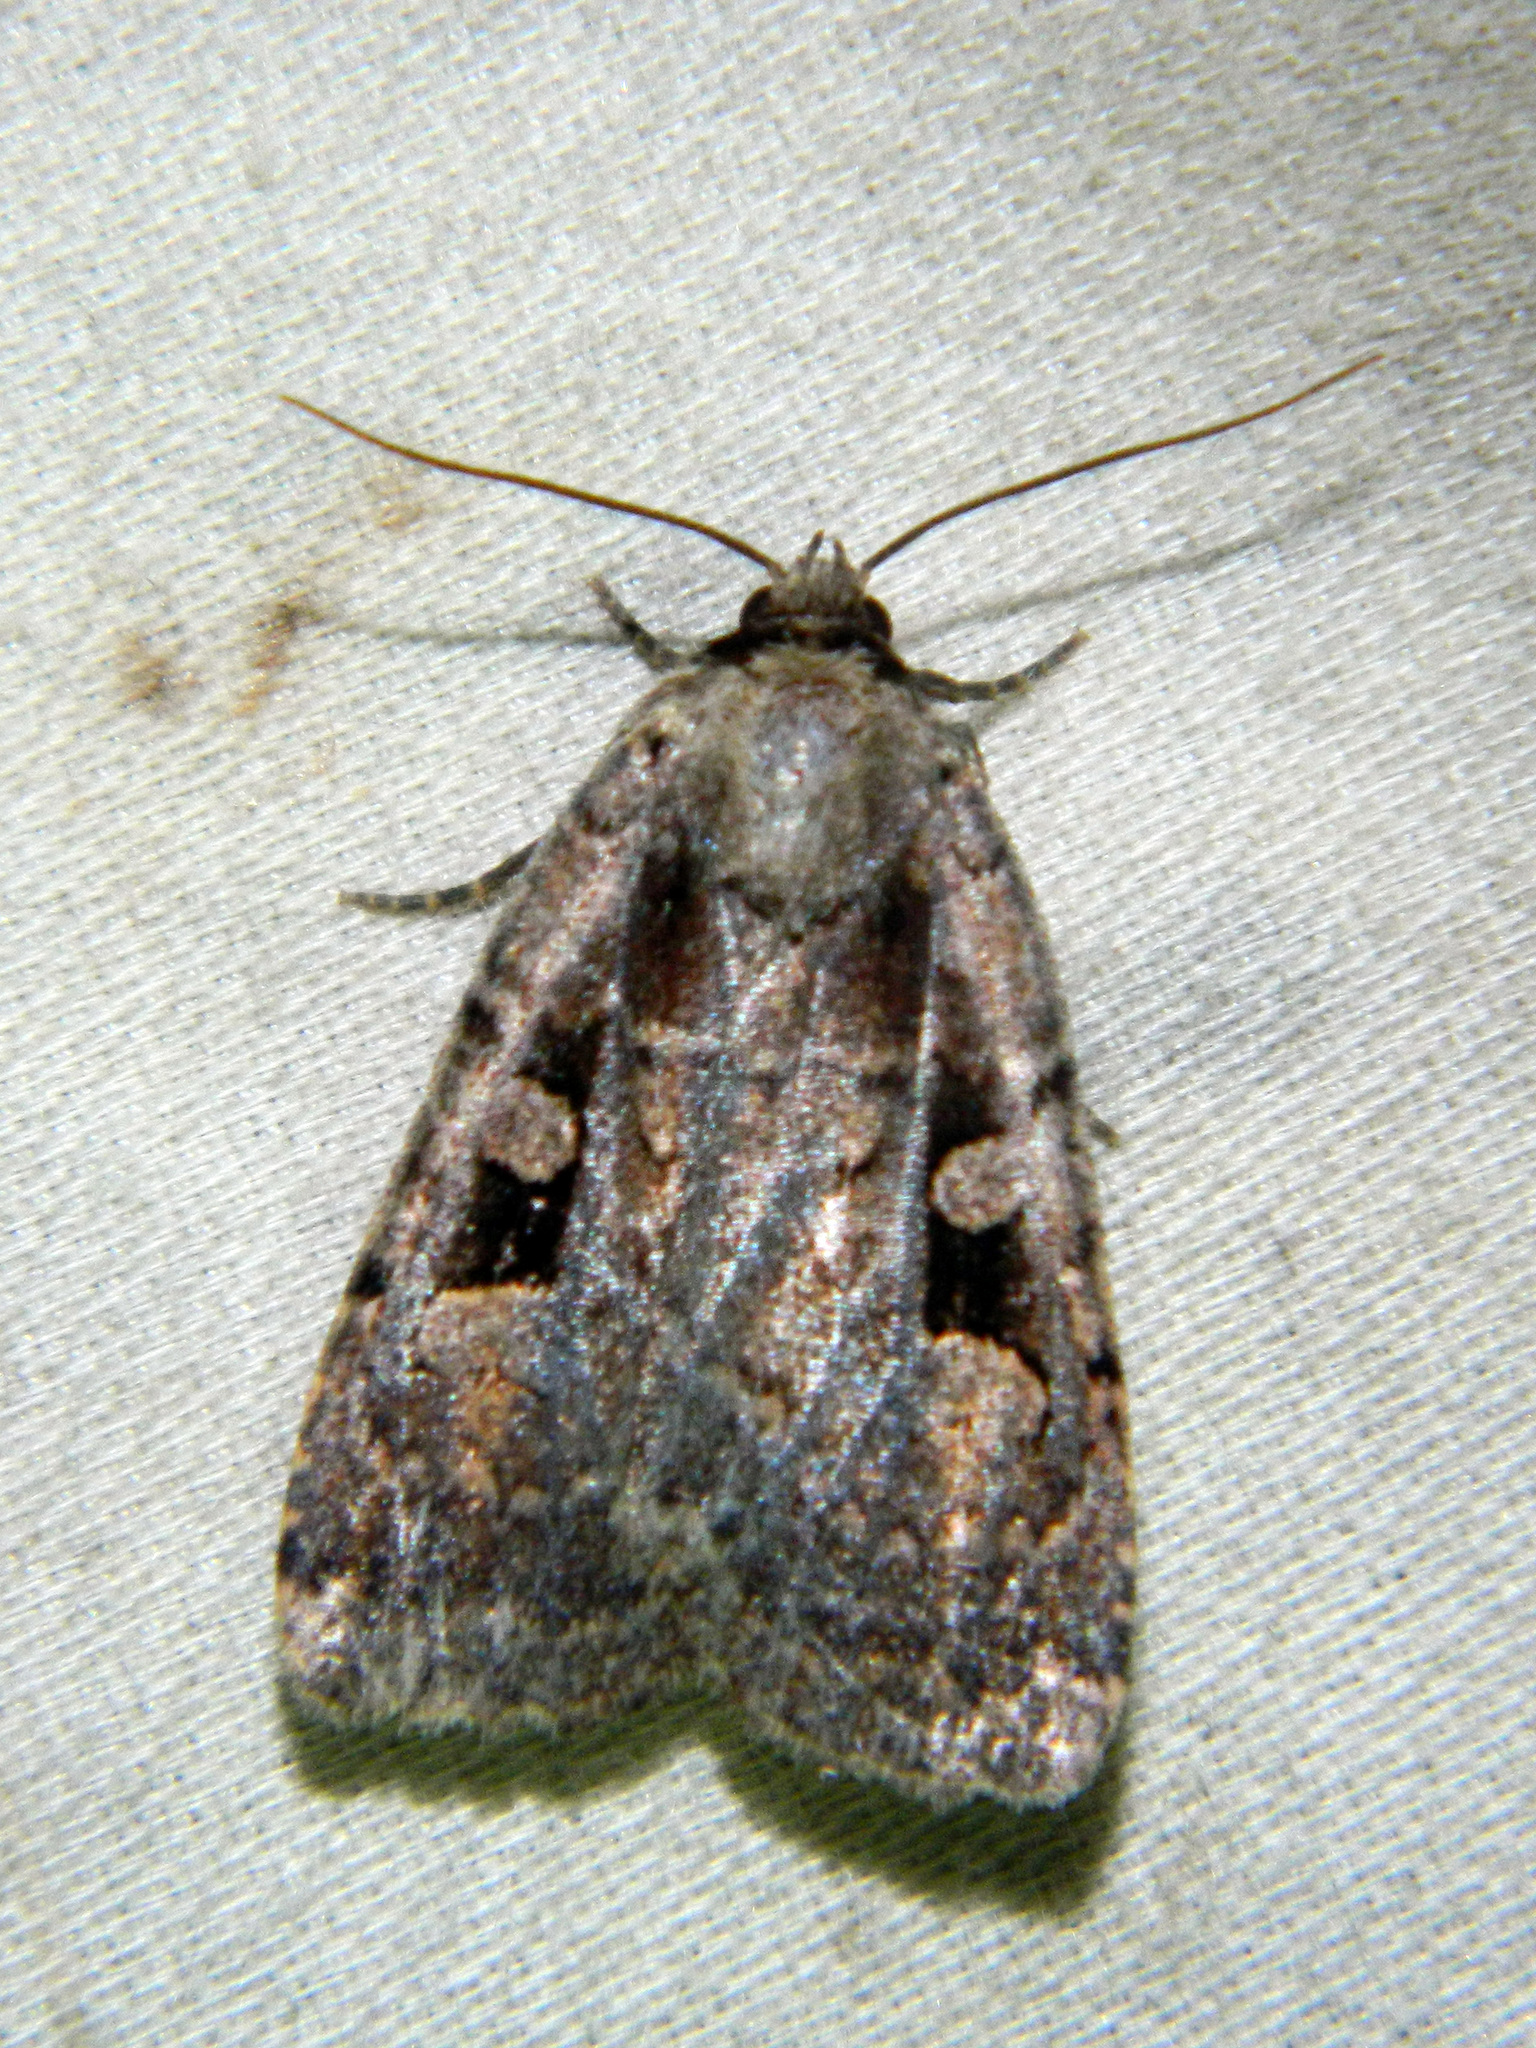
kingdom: Animalia
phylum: Arthropoda
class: Insecta
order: Lepidoptera
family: Noctuidae
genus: Eueretagrotis
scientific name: Eueretagrotis perattentus
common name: Two-spot dart moth
